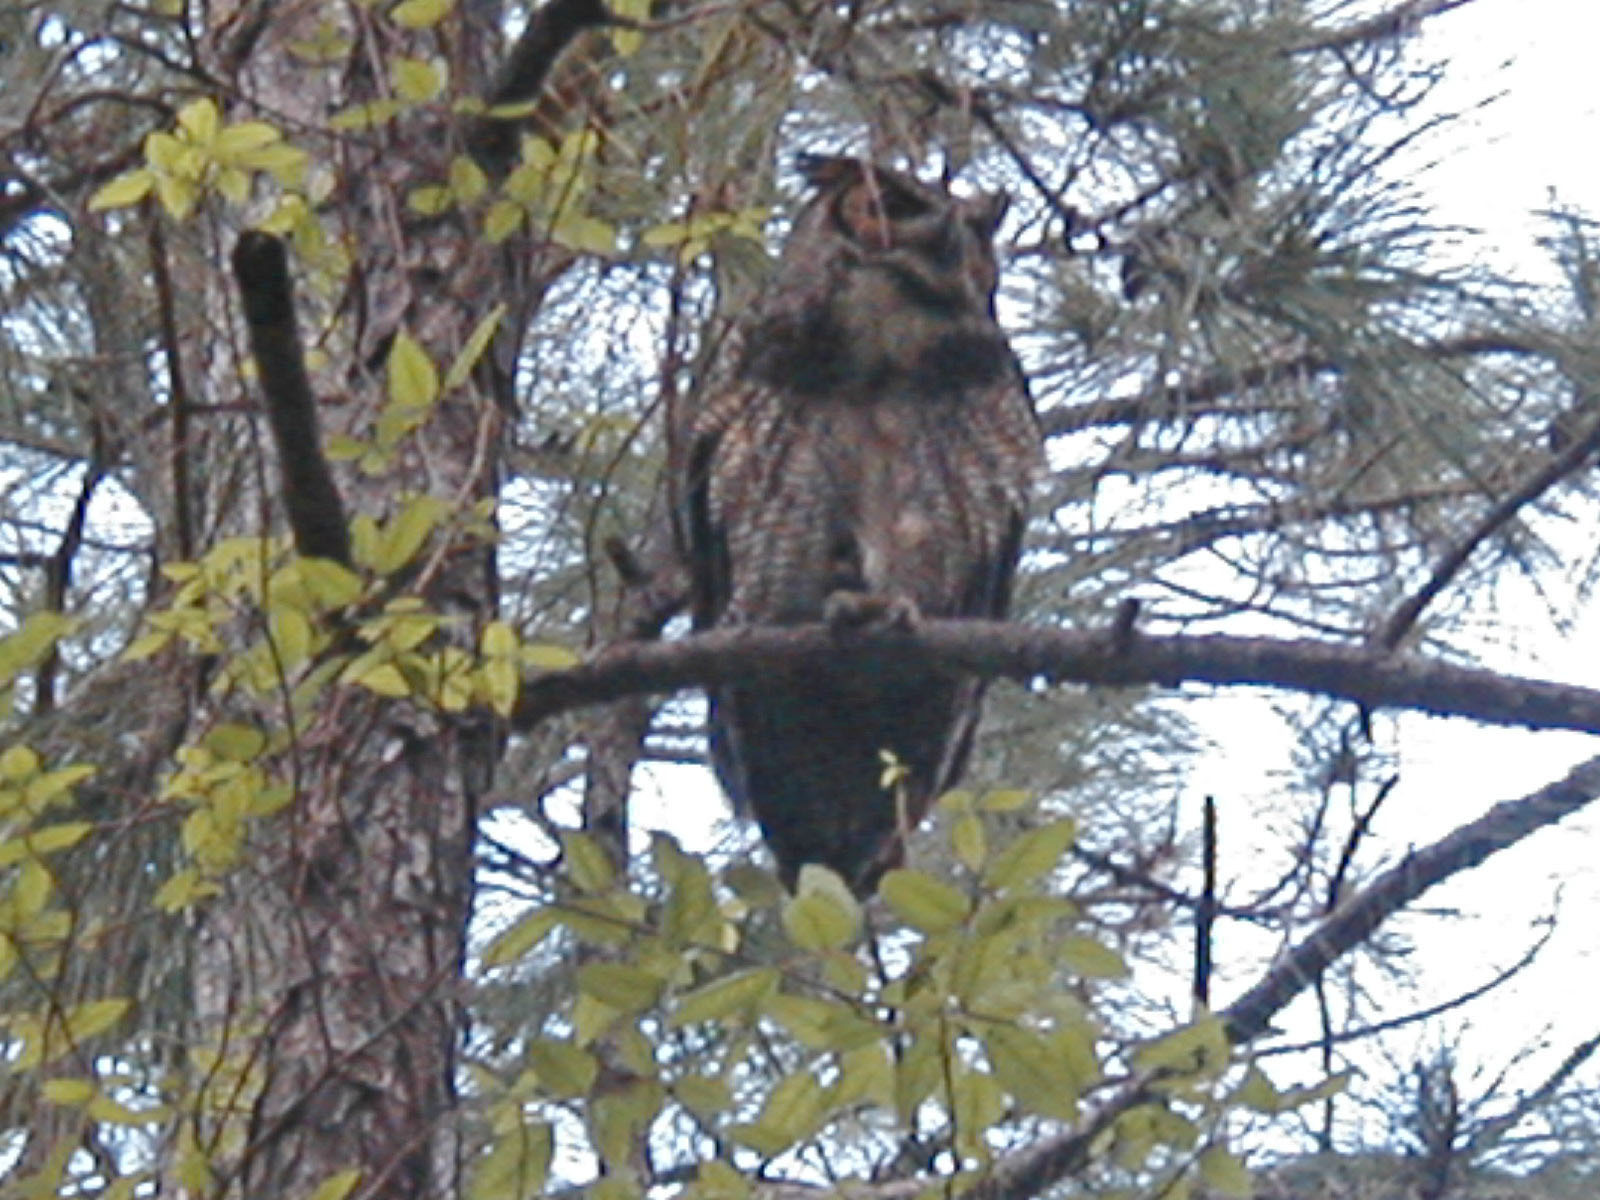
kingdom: Animalia
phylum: Chordata
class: Aves
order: Strigiformes
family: Strigidae
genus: Bubo
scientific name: Bubo virginianus
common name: Great horned owl
